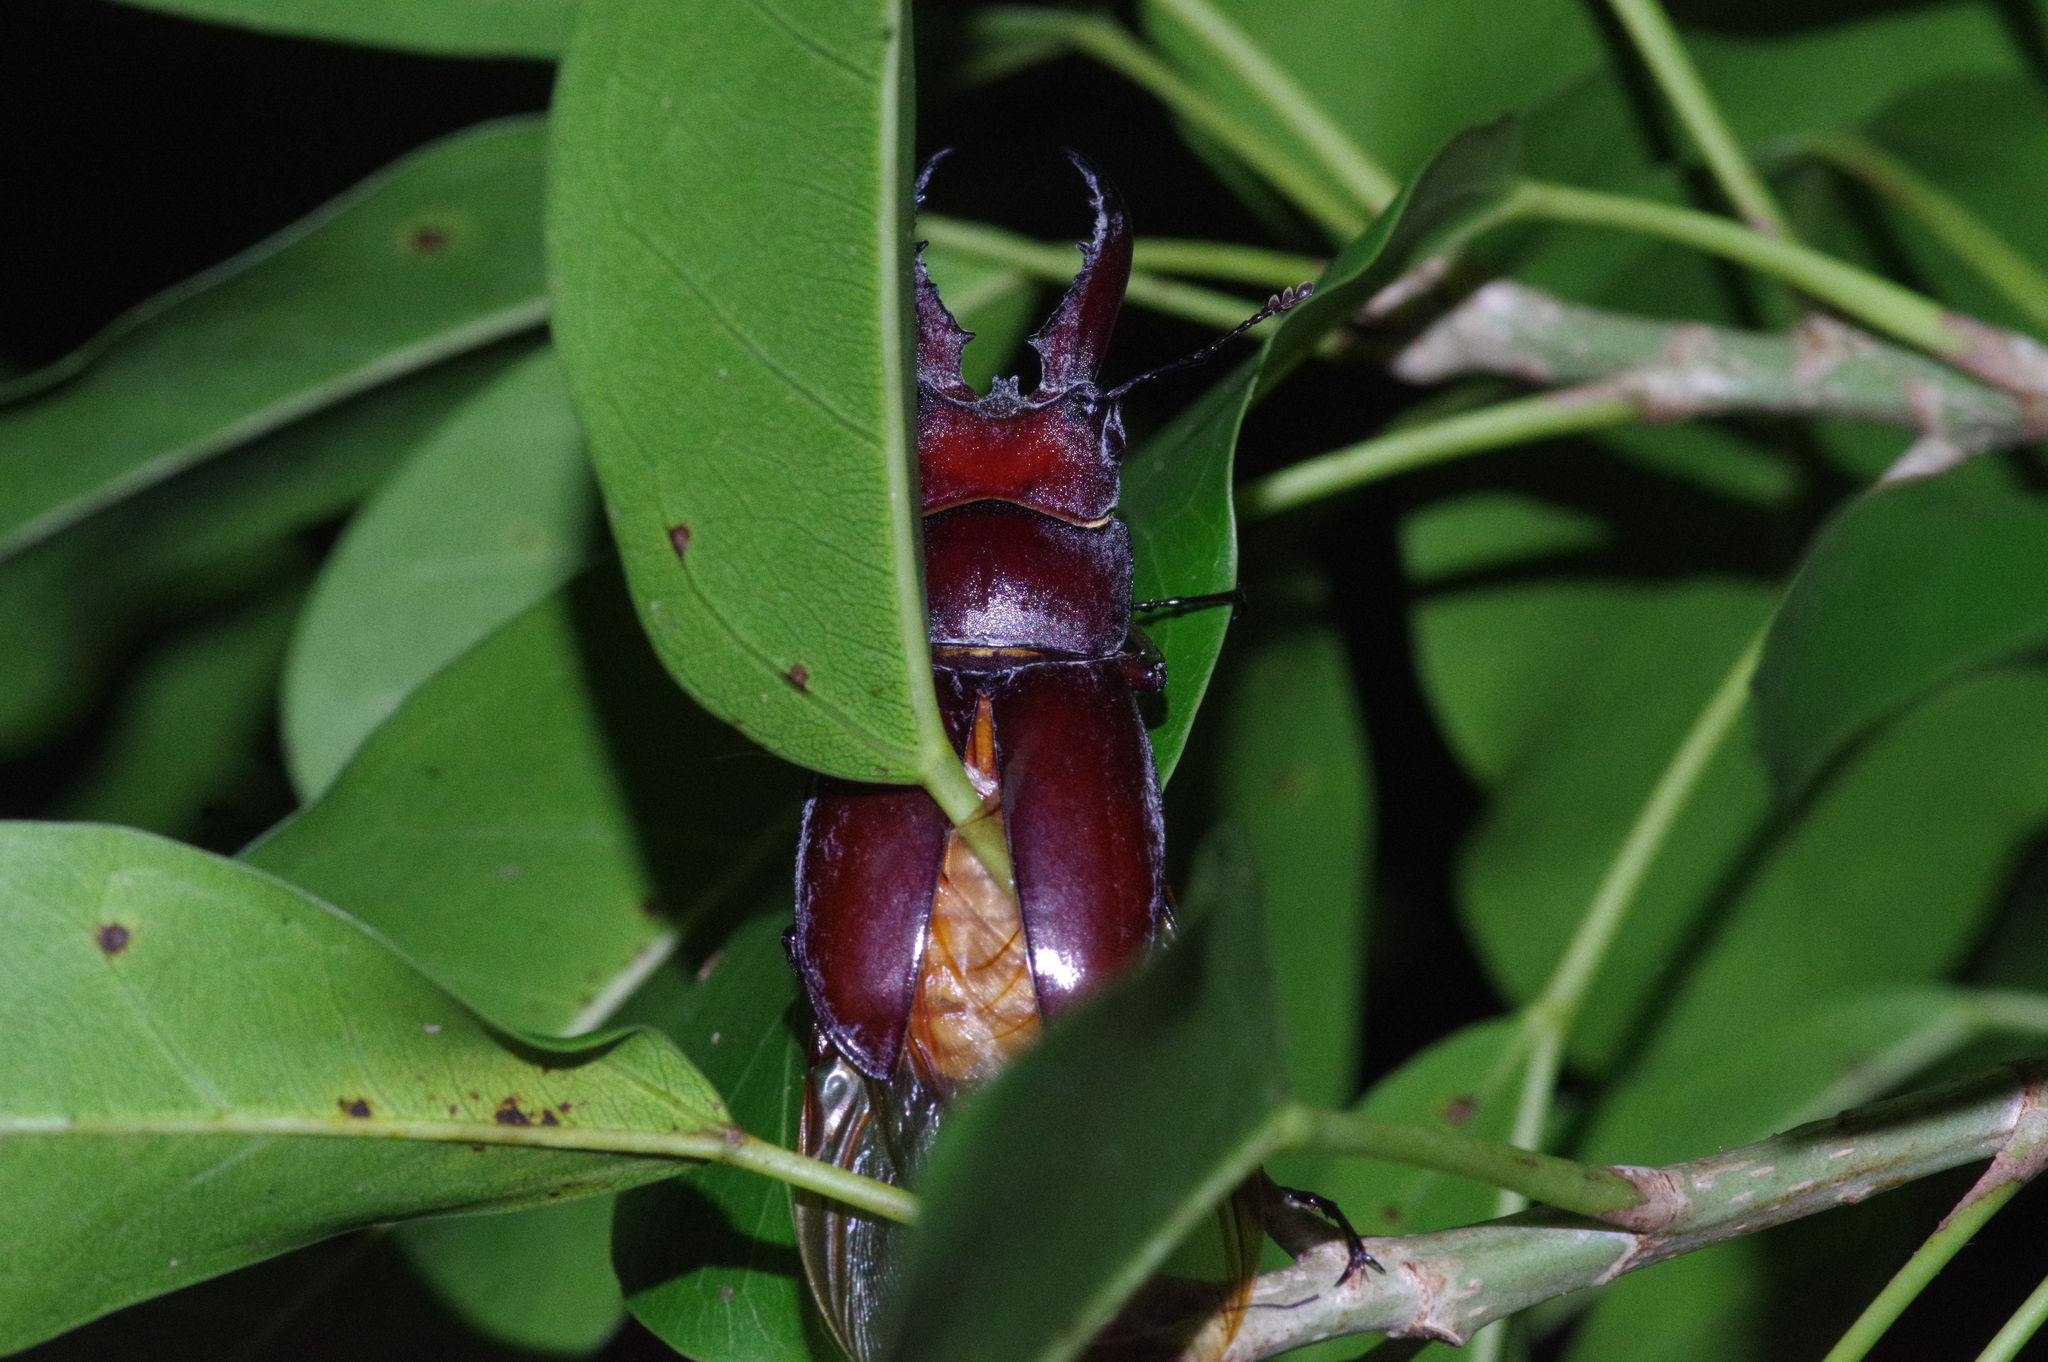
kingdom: Animalia
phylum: Arthropoda
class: Insecta
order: Coleoptera
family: Lucanidae
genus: Prosopocoilus
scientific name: Prosopocoilus dissimilis
